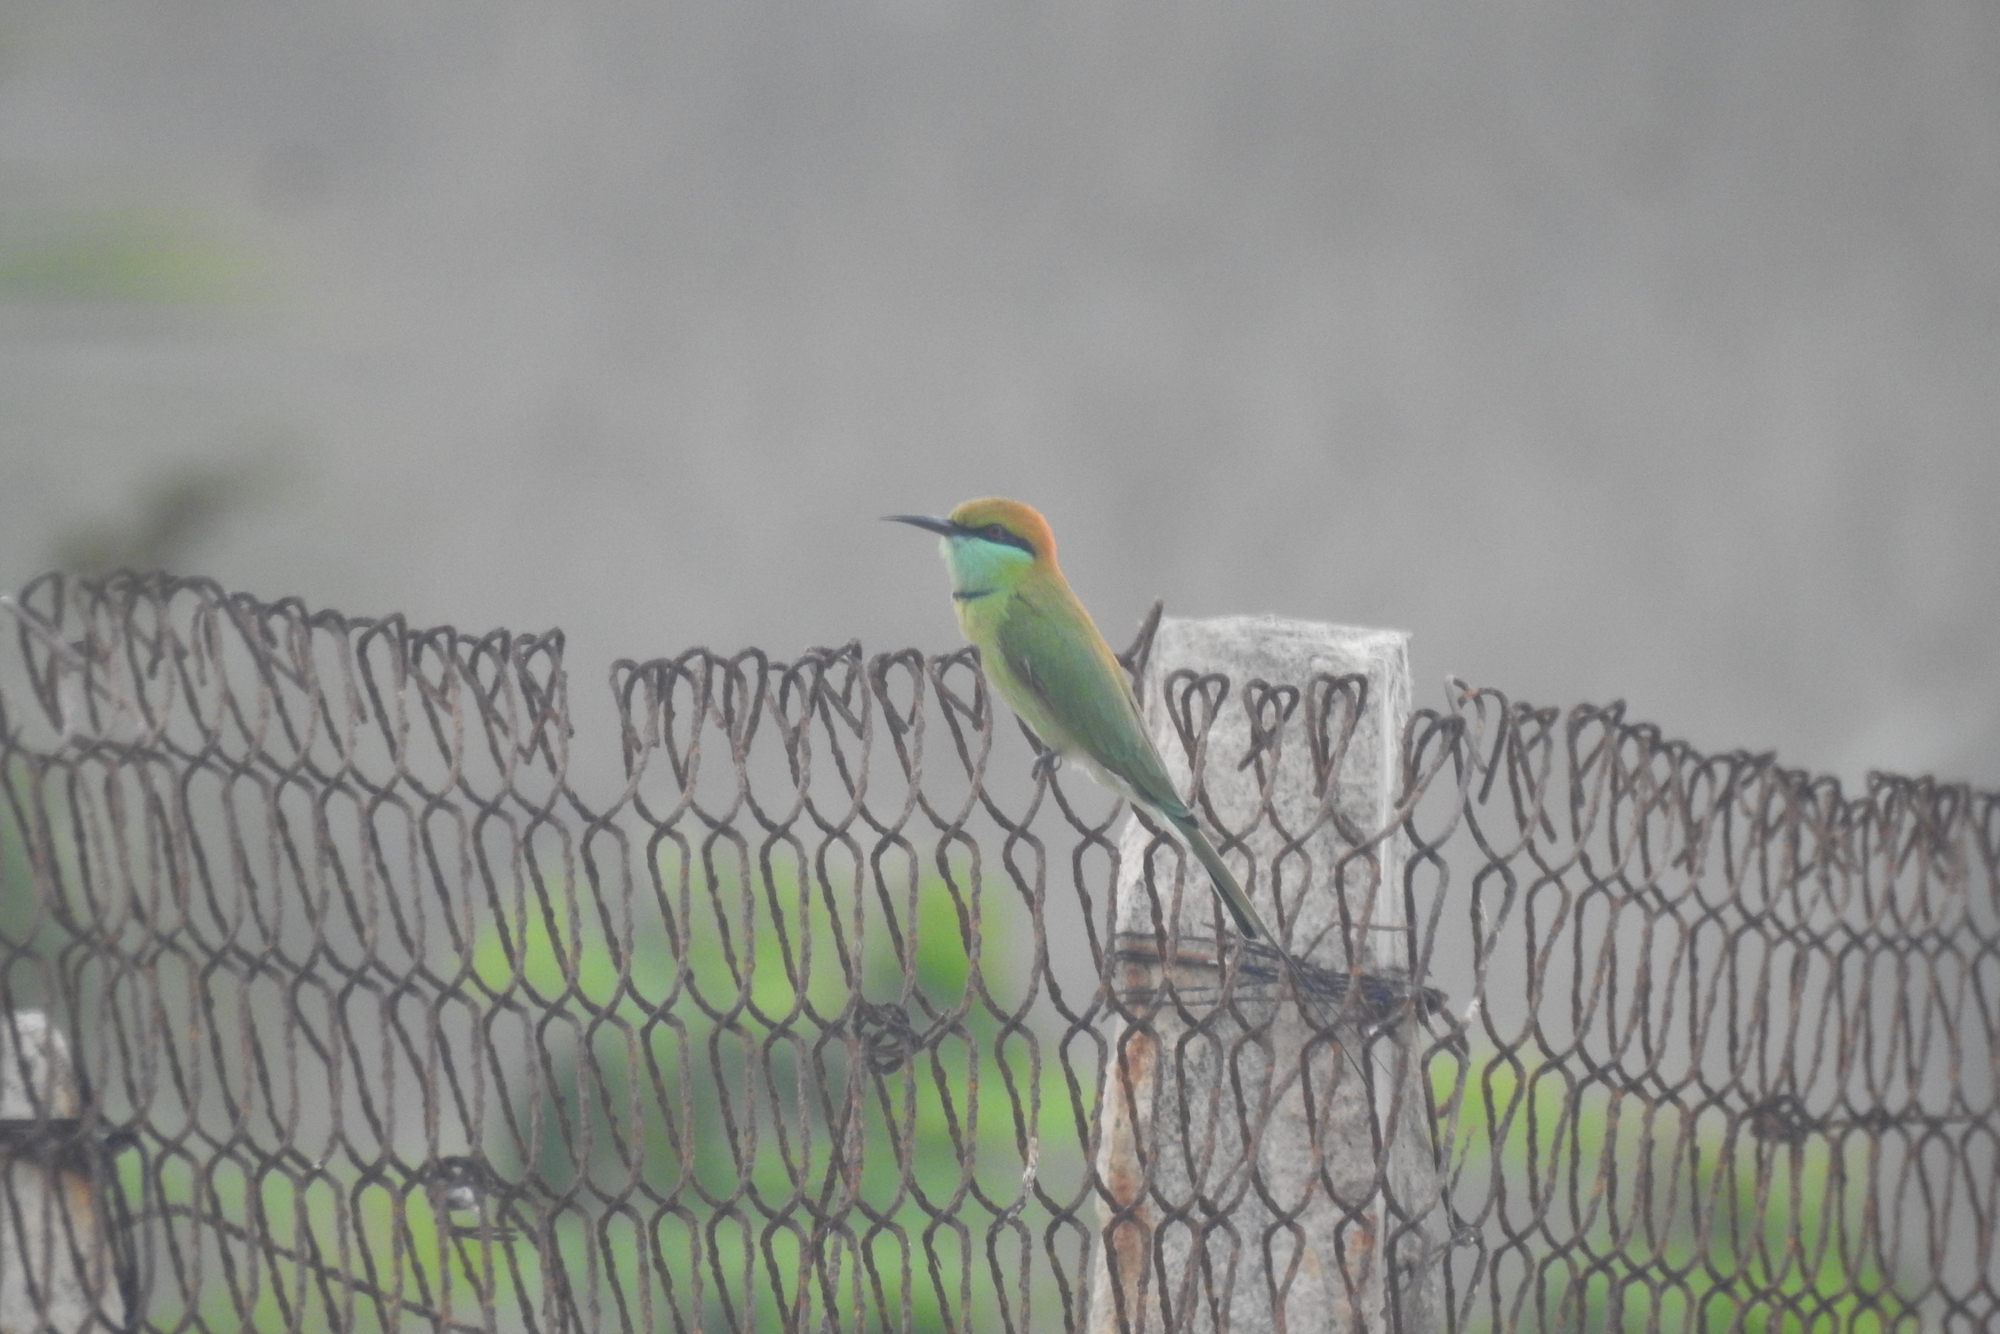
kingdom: Animalia
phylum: Chordata
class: Aves
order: Coraciiformes
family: Meropidae
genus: Merops
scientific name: Merops orientalis
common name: Green bee-eater
